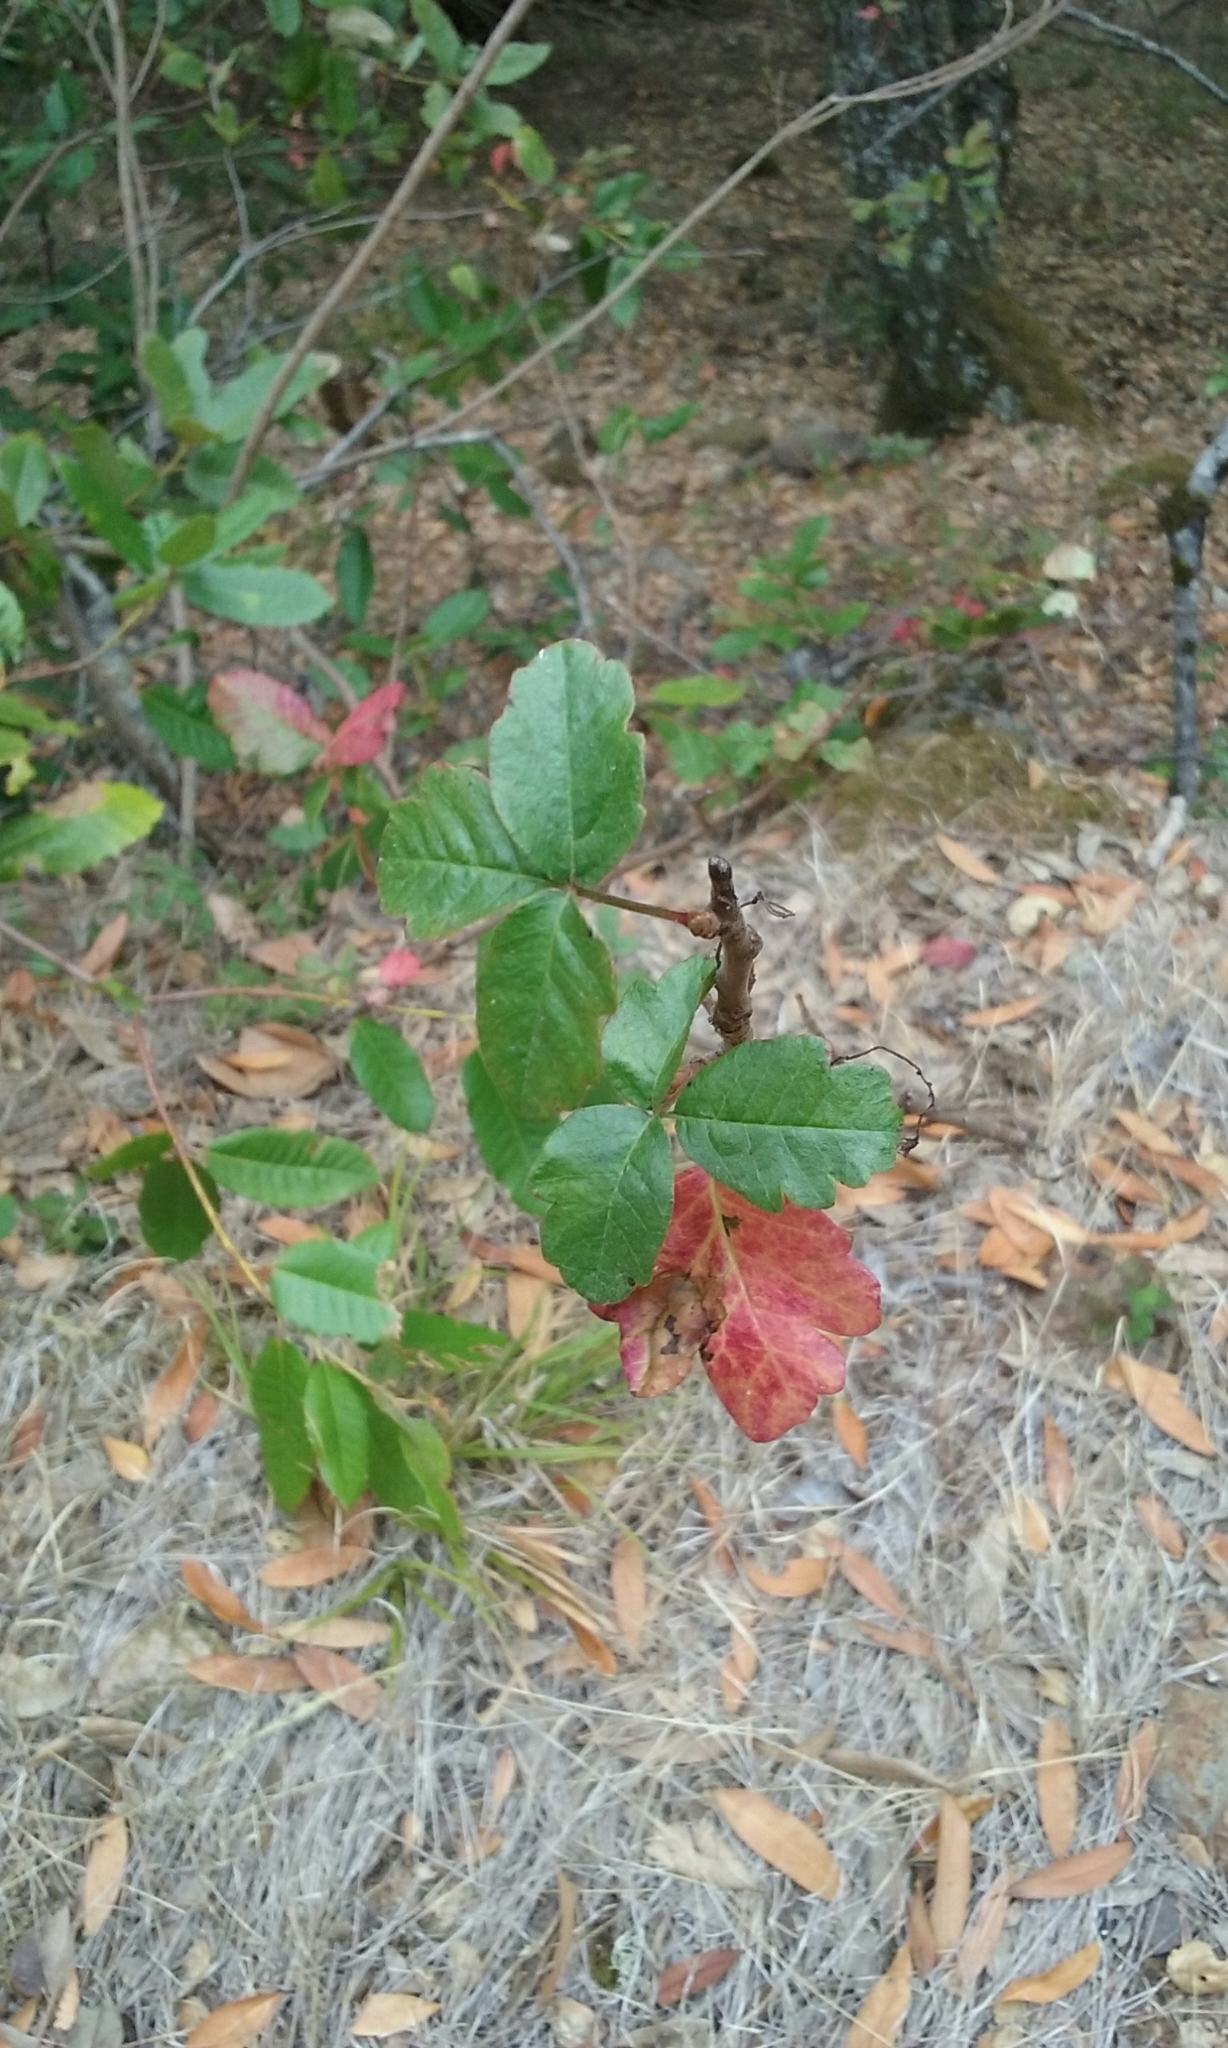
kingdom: Plantae
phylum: Tracheophyta
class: Magnoliopsida
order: Sapindales
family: Anacardiaceae
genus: Toxicodendron
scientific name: Toxicodendron diversilobum
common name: Pacific poison-oak
